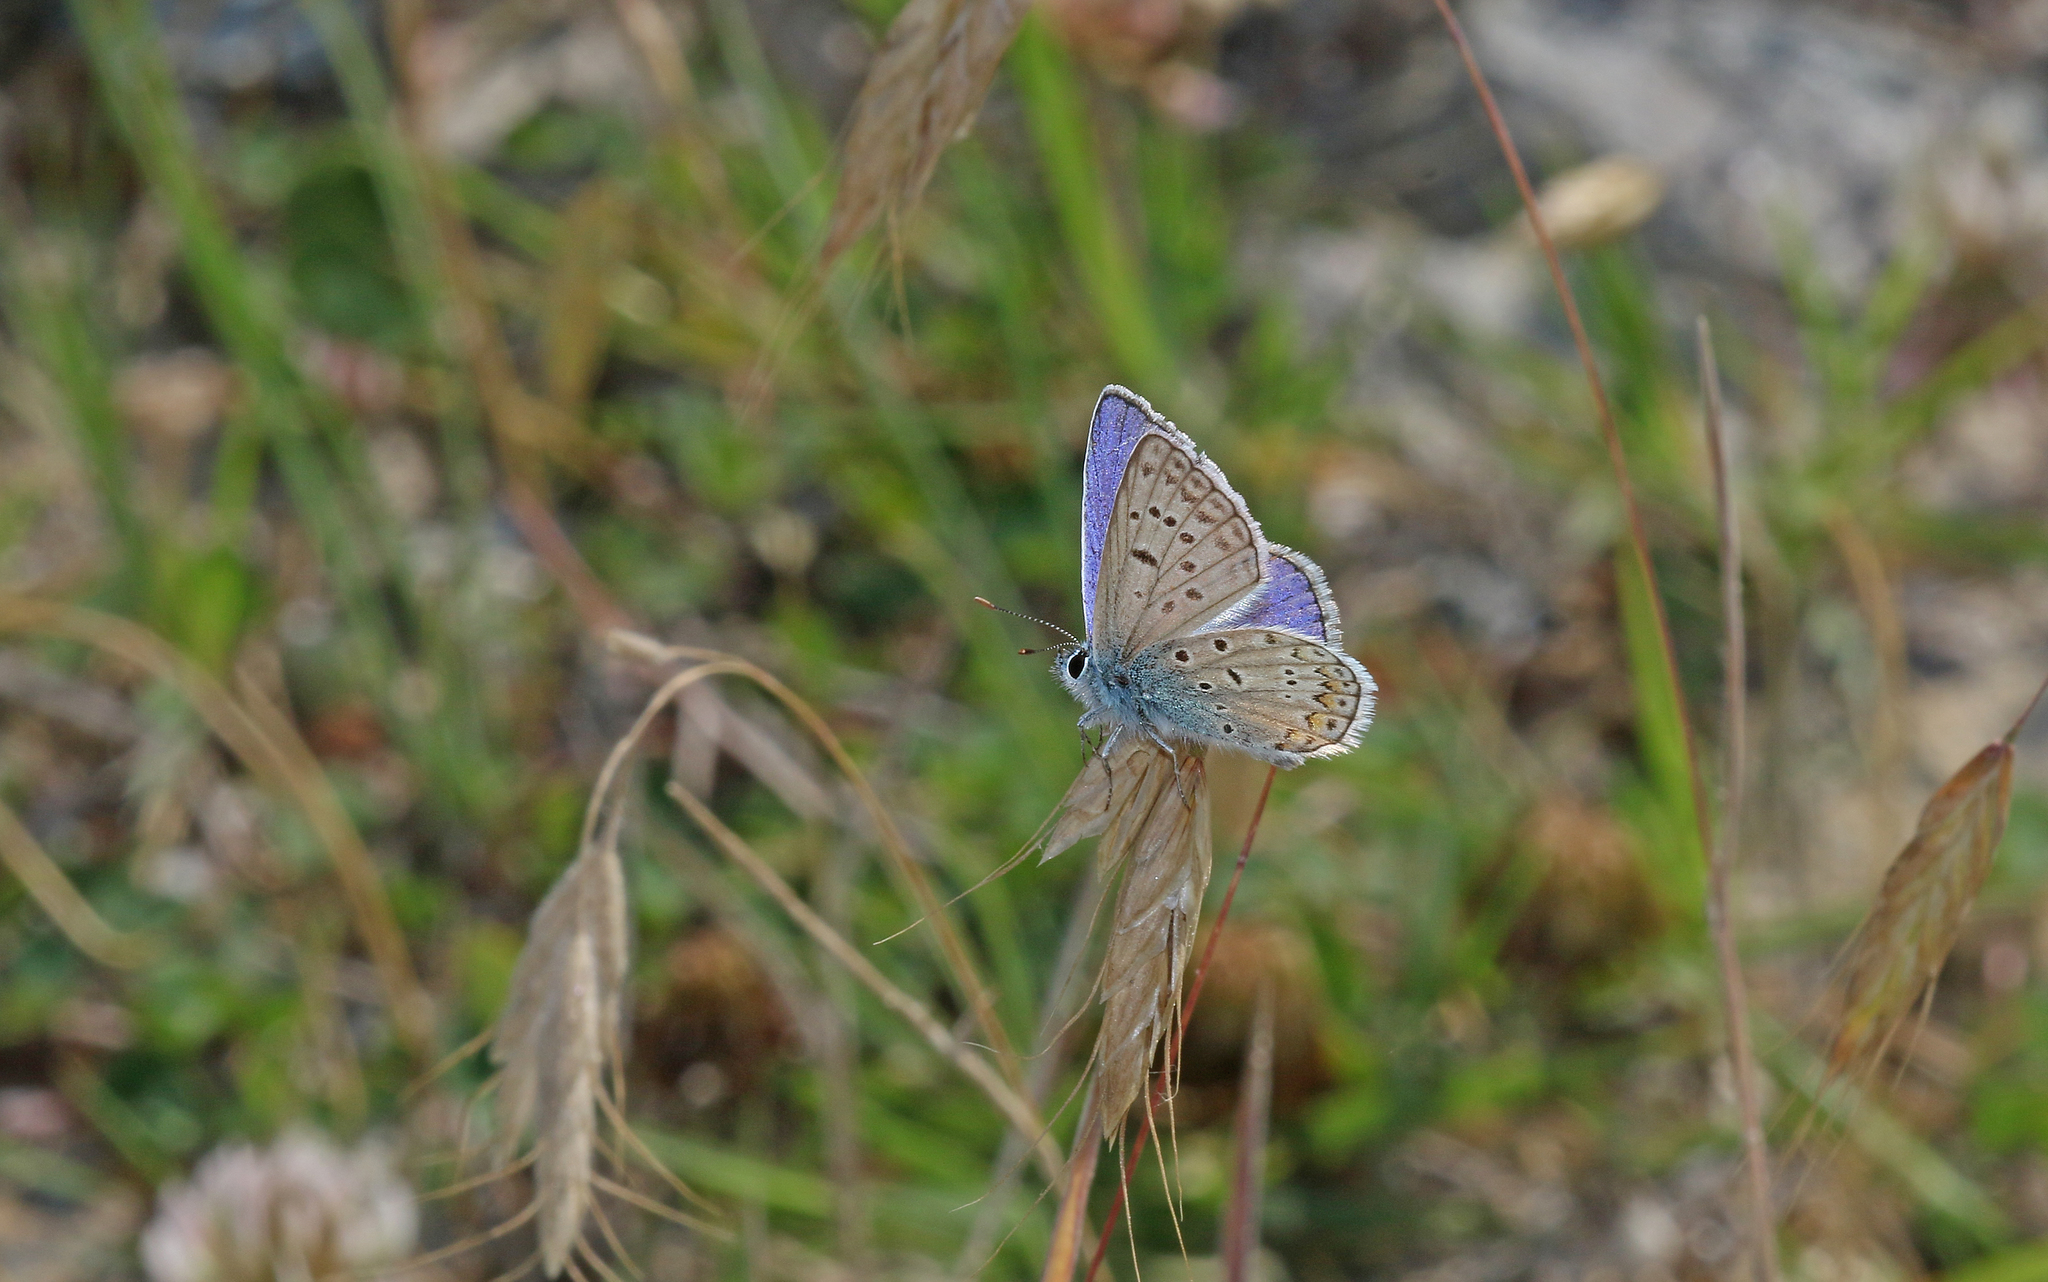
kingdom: Animalia
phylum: Arthropoda
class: Insecta
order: Lepidoptera
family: Lycaenidae
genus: Polyommatus
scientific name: Polyommatus icarus
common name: Common blue
